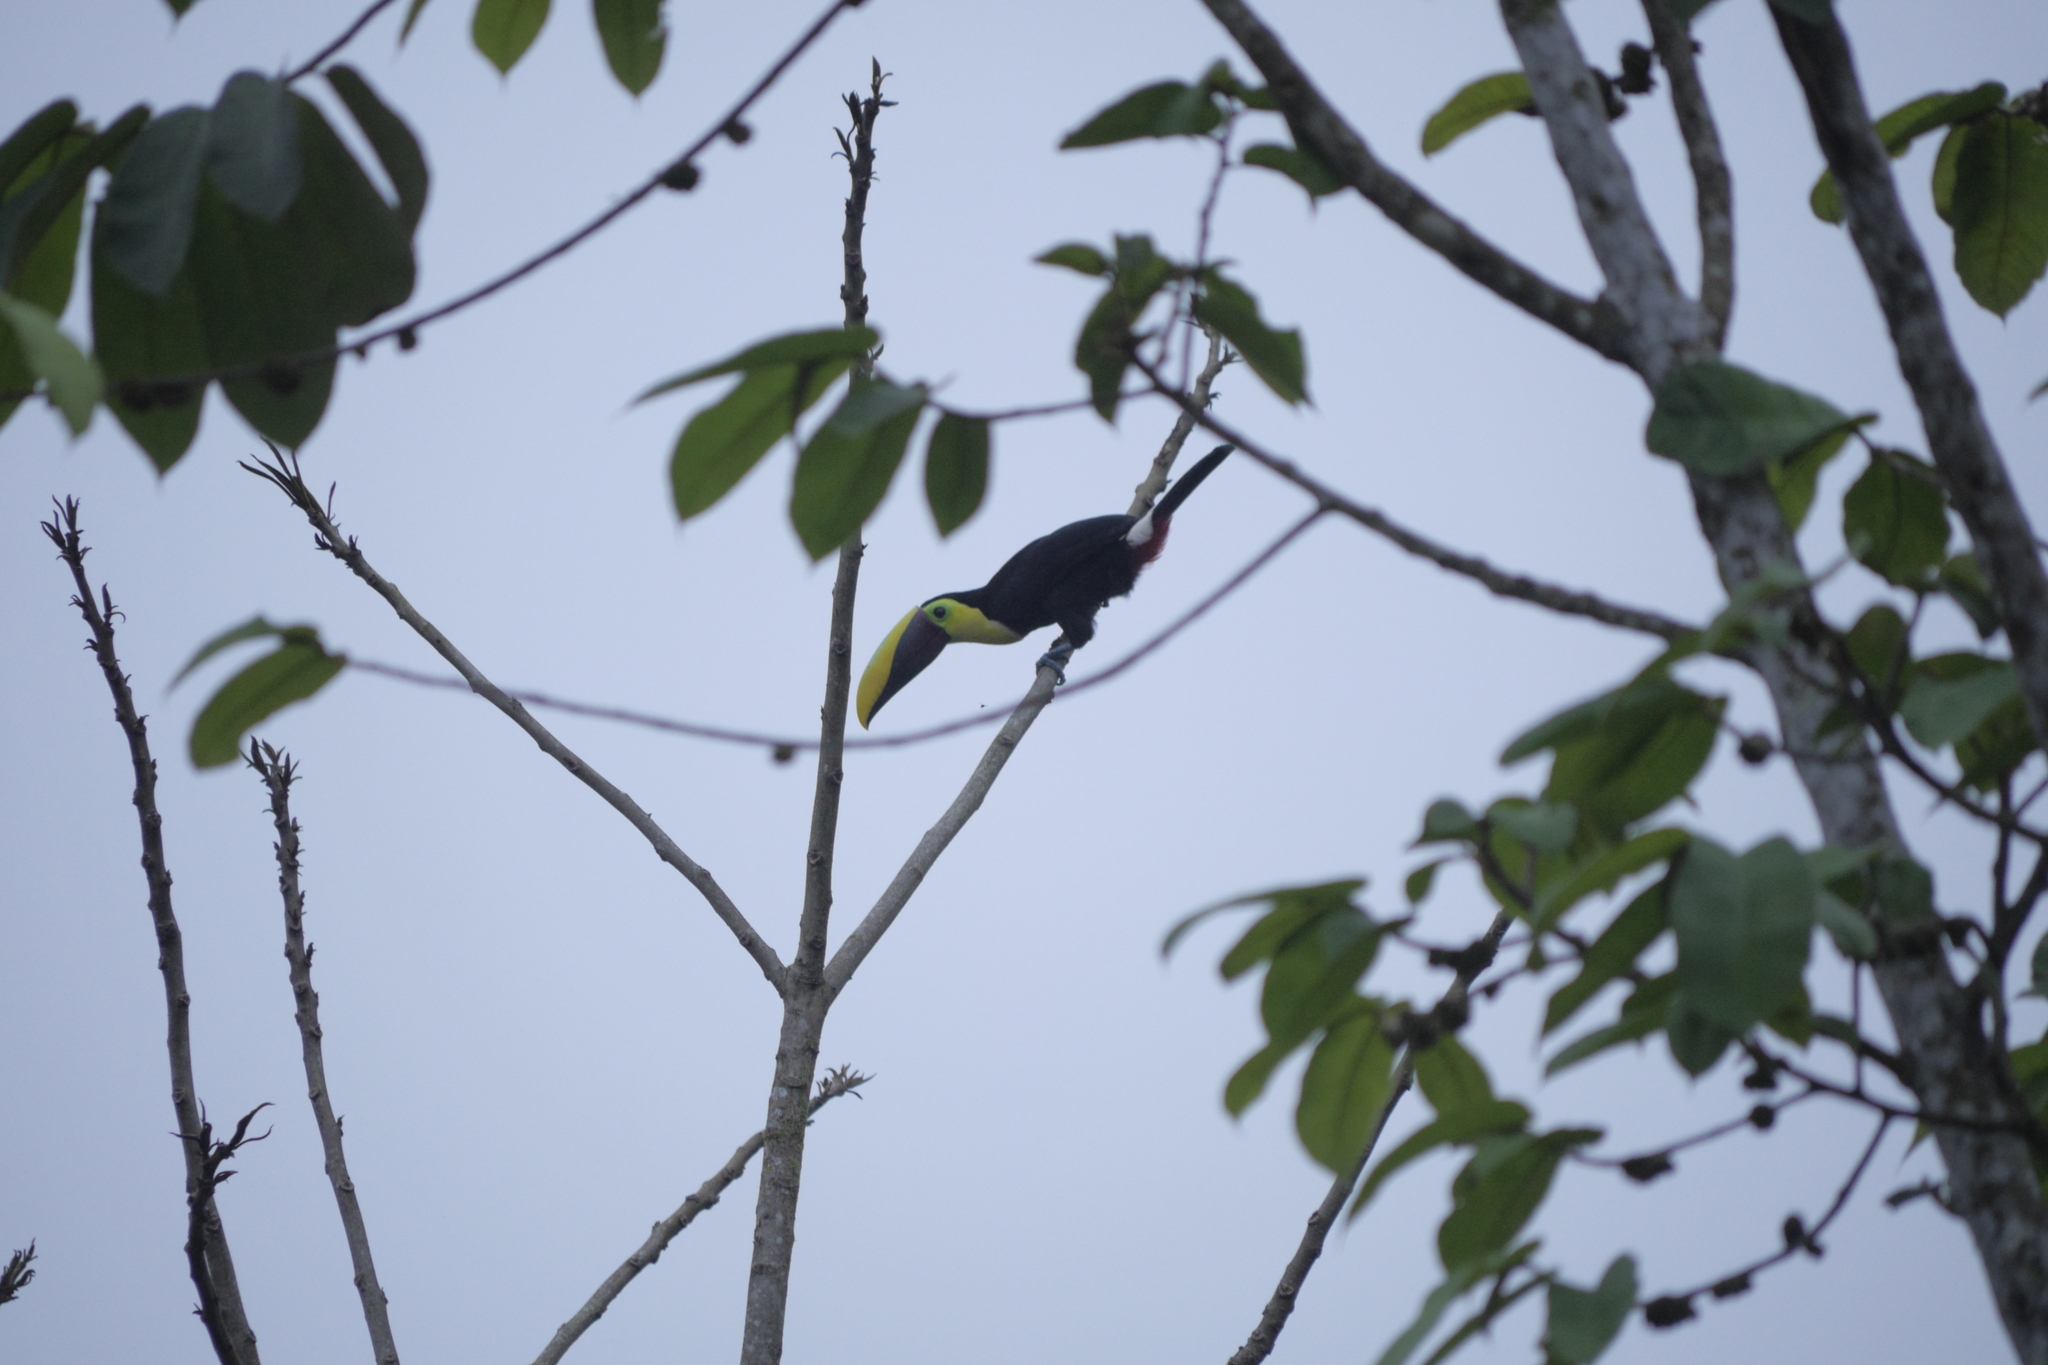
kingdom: Animalia
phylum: Chordata
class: Aves
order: Piciformes
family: Ramphastidae
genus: Ramphastos
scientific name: Ramphastos brevis
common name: Choco toucan
